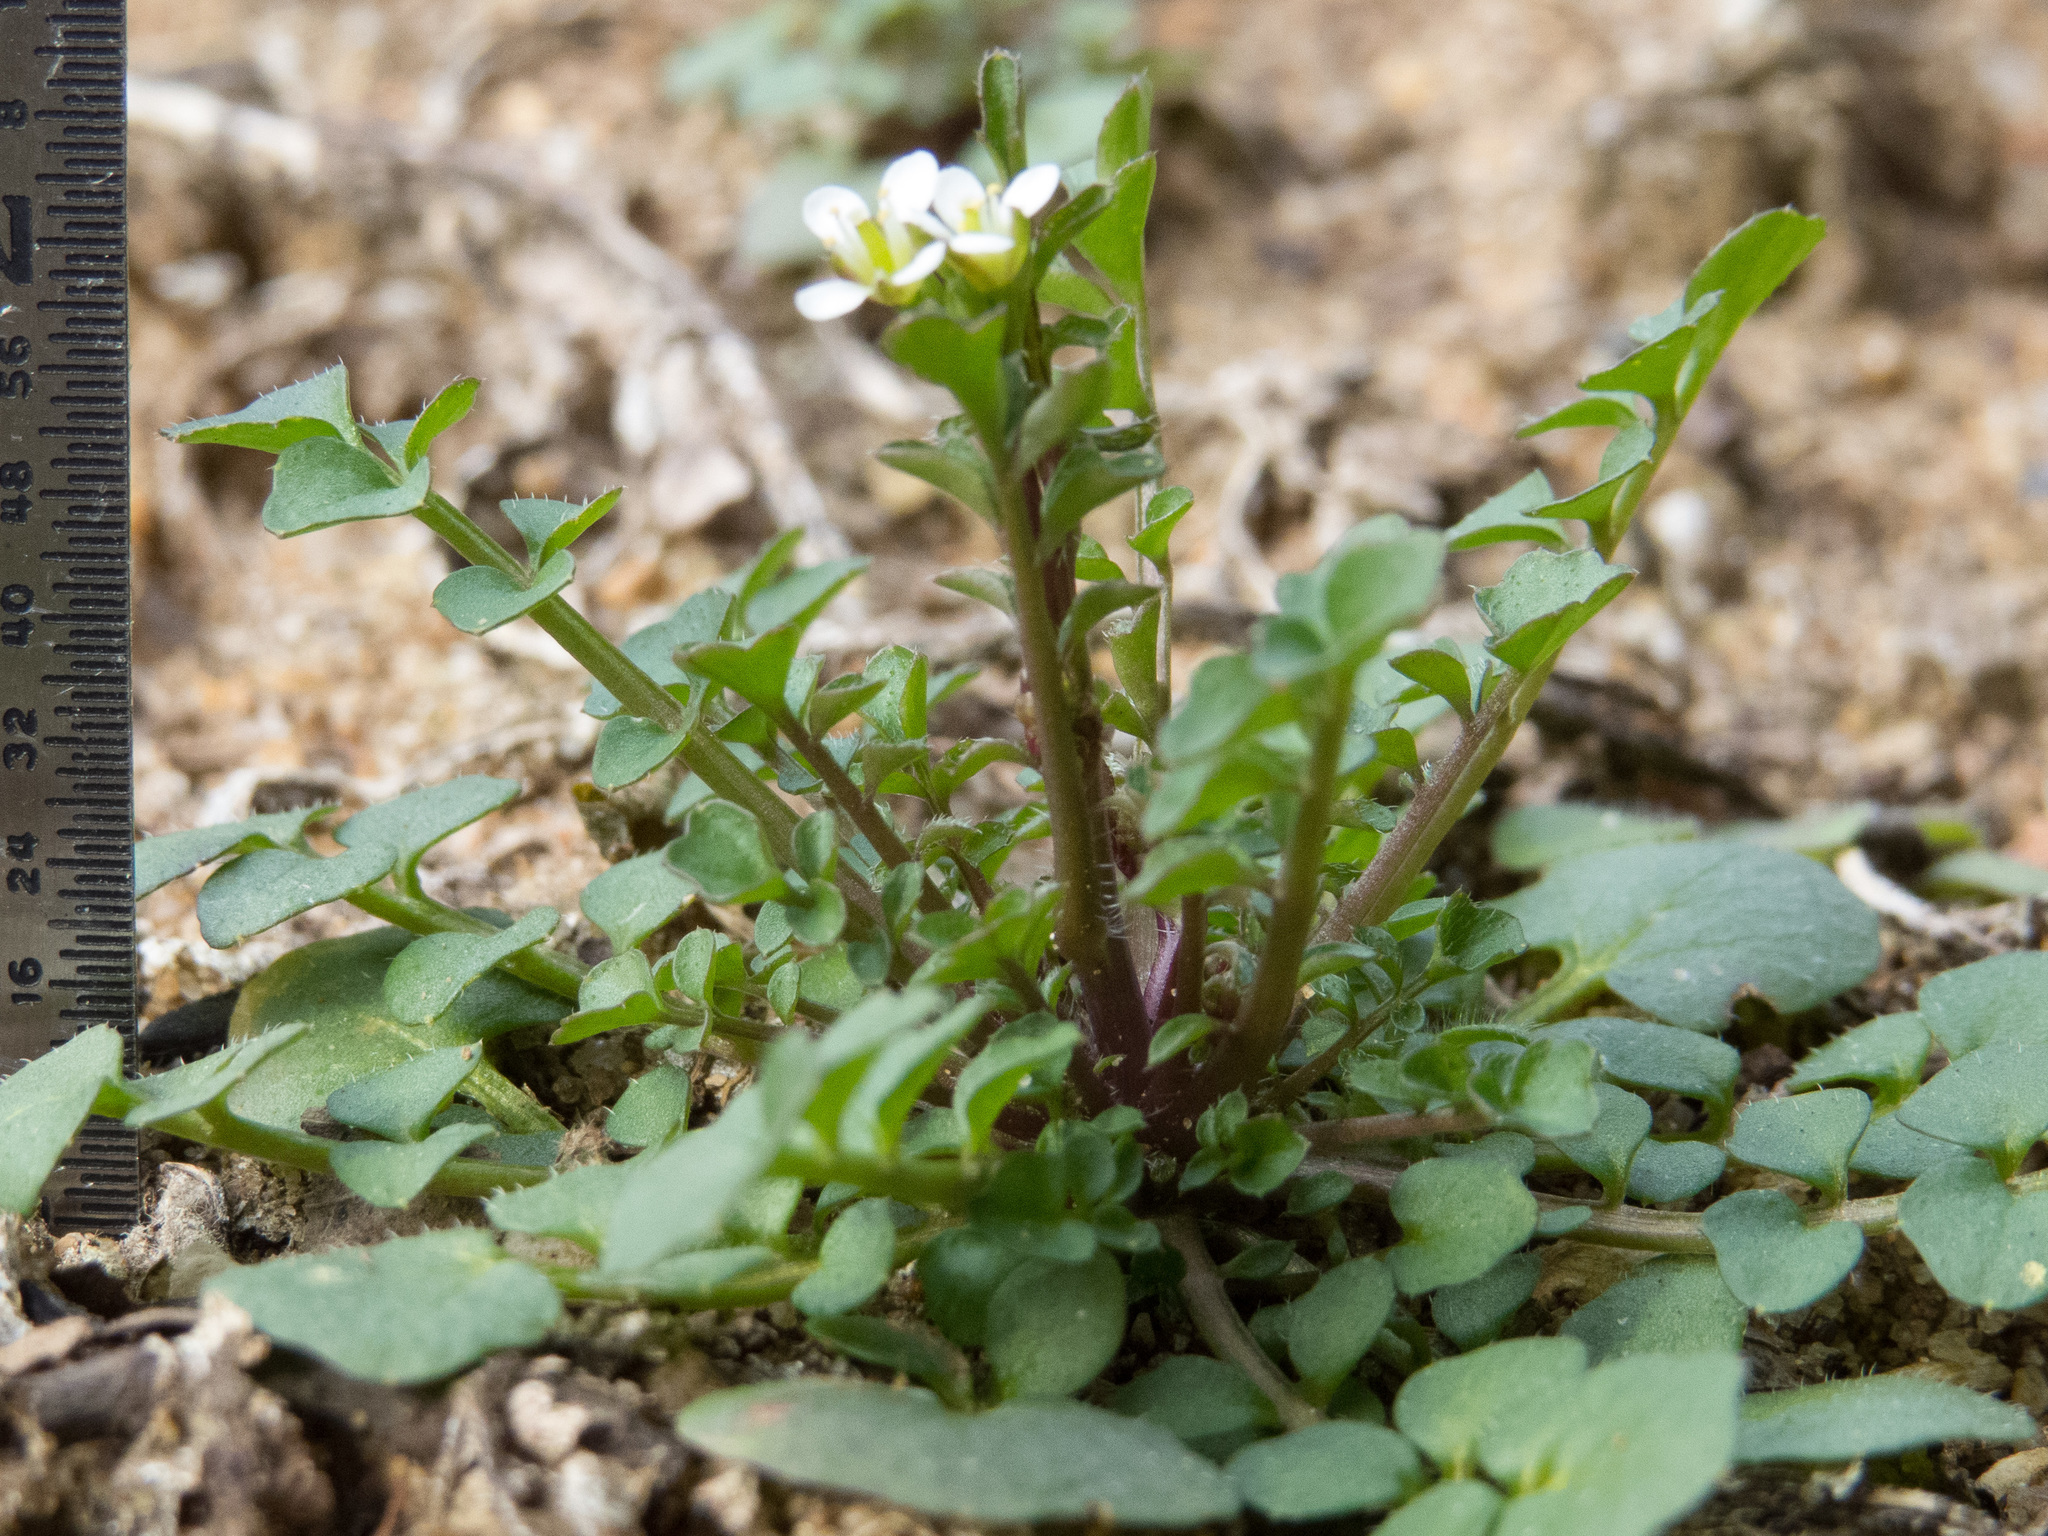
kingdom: Plantae
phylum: Tracheophyta
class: Magnoliopsida
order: Brassicales
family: Brassicaceae
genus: Cardamine
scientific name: Cardamine hirsuta
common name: Hairy bittercress
